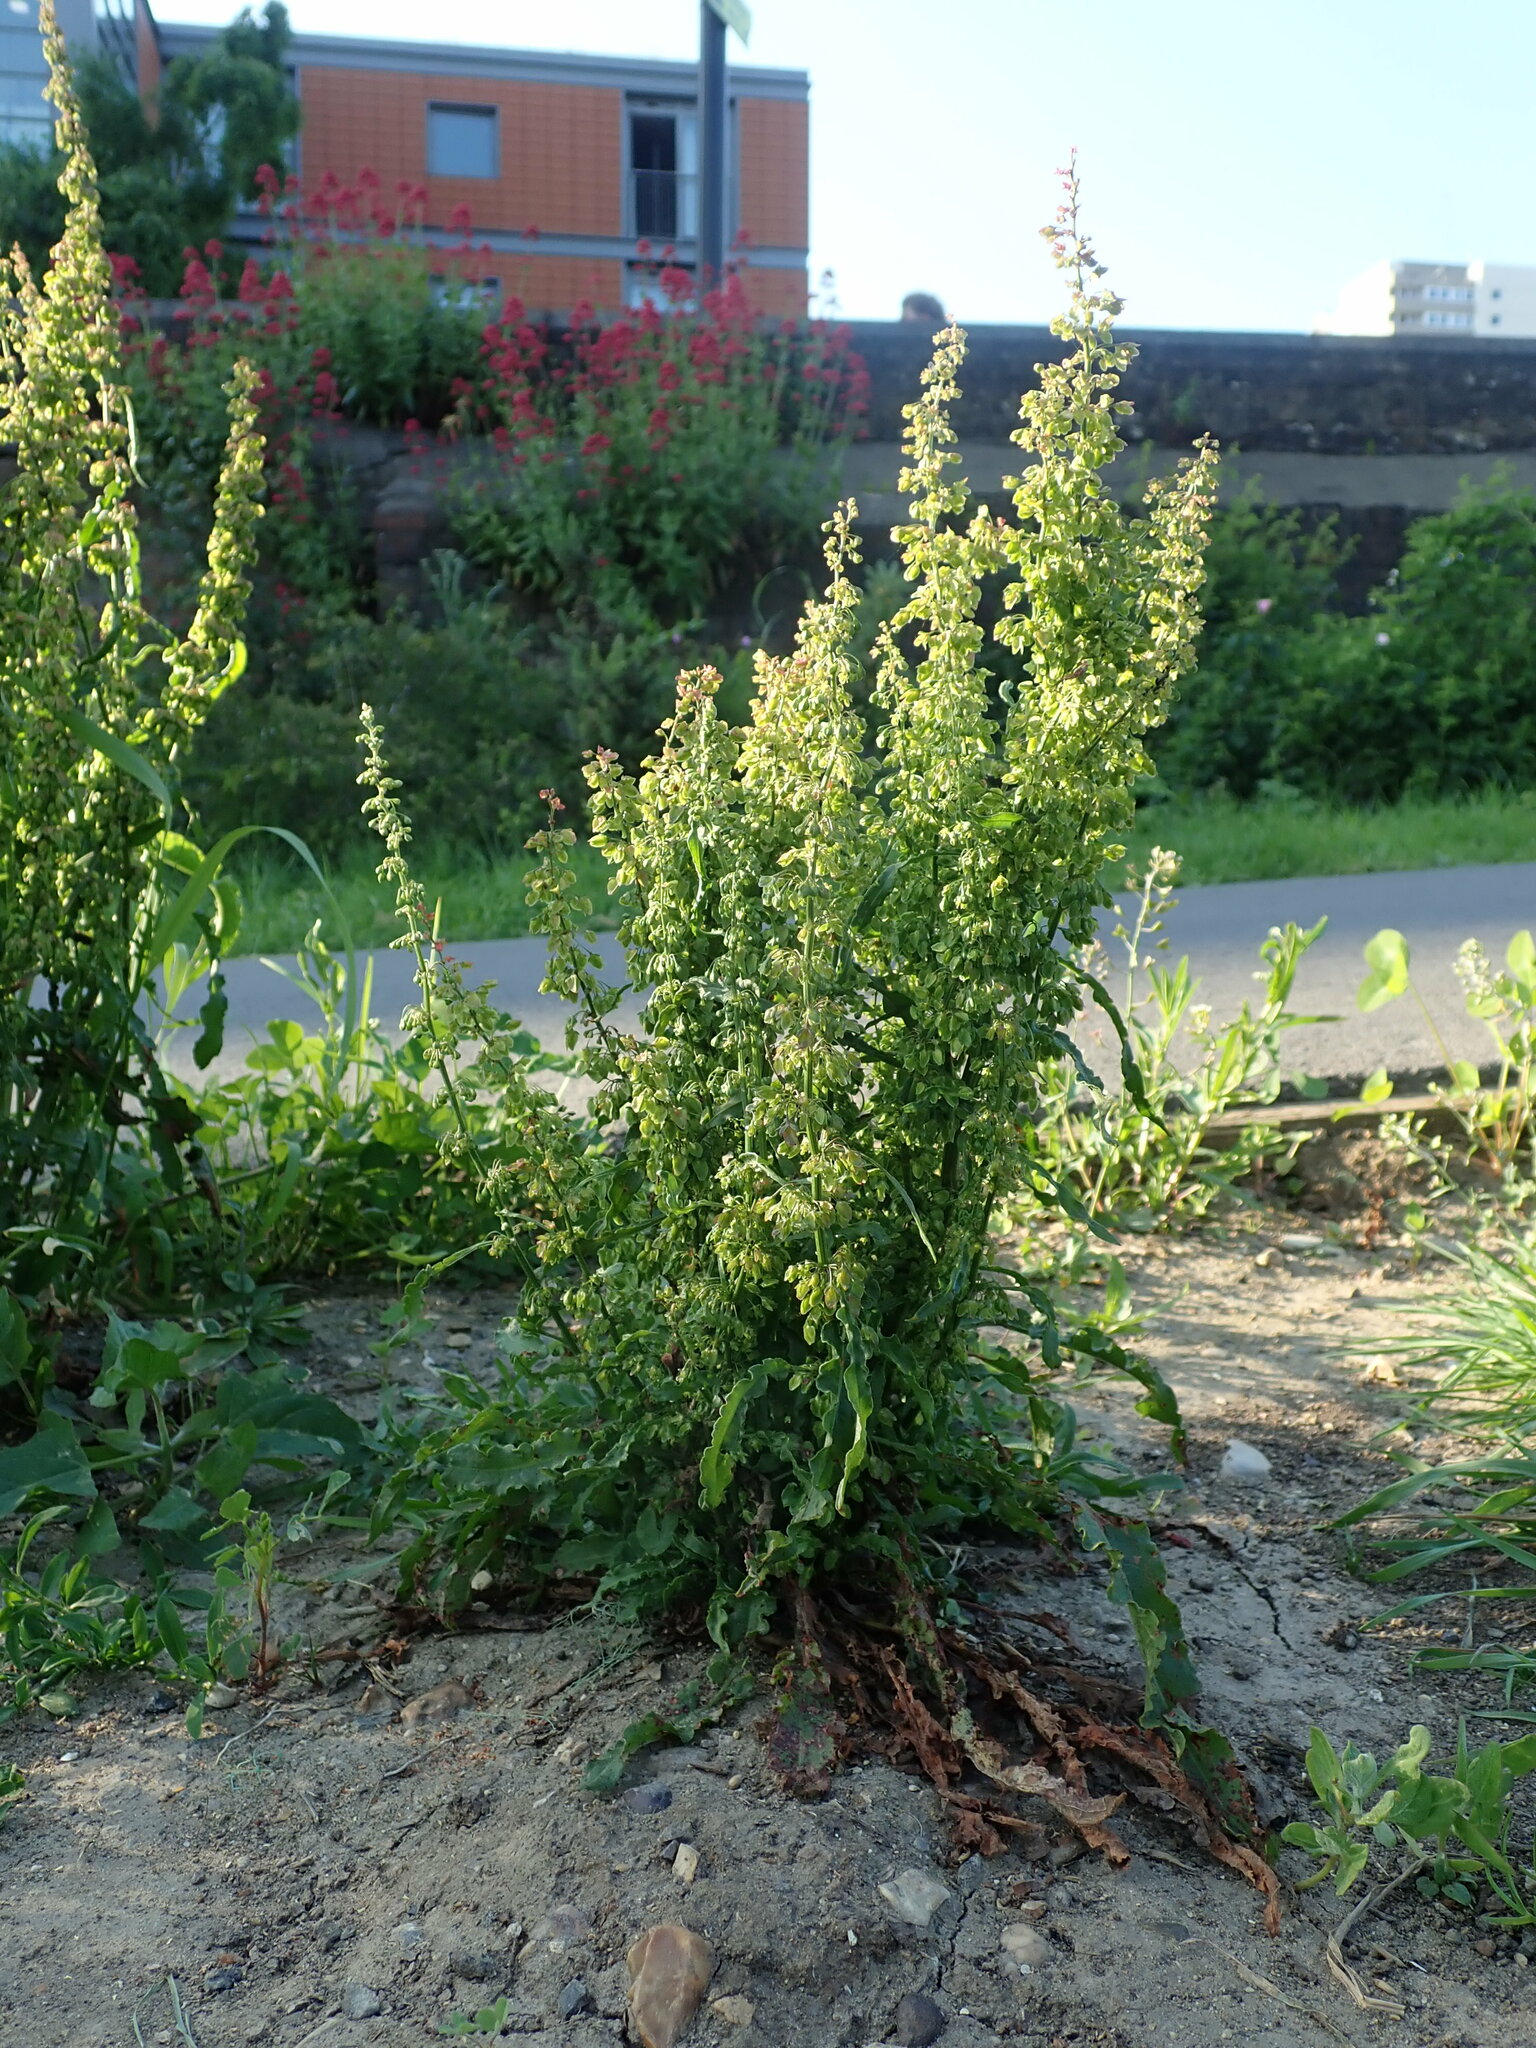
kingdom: Plantae
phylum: Tracheophyta
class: Magnoliopsida
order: Caryophyllales
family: Polygonaceae
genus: Rumex
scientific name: Rumex crispus
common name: Curled dock
